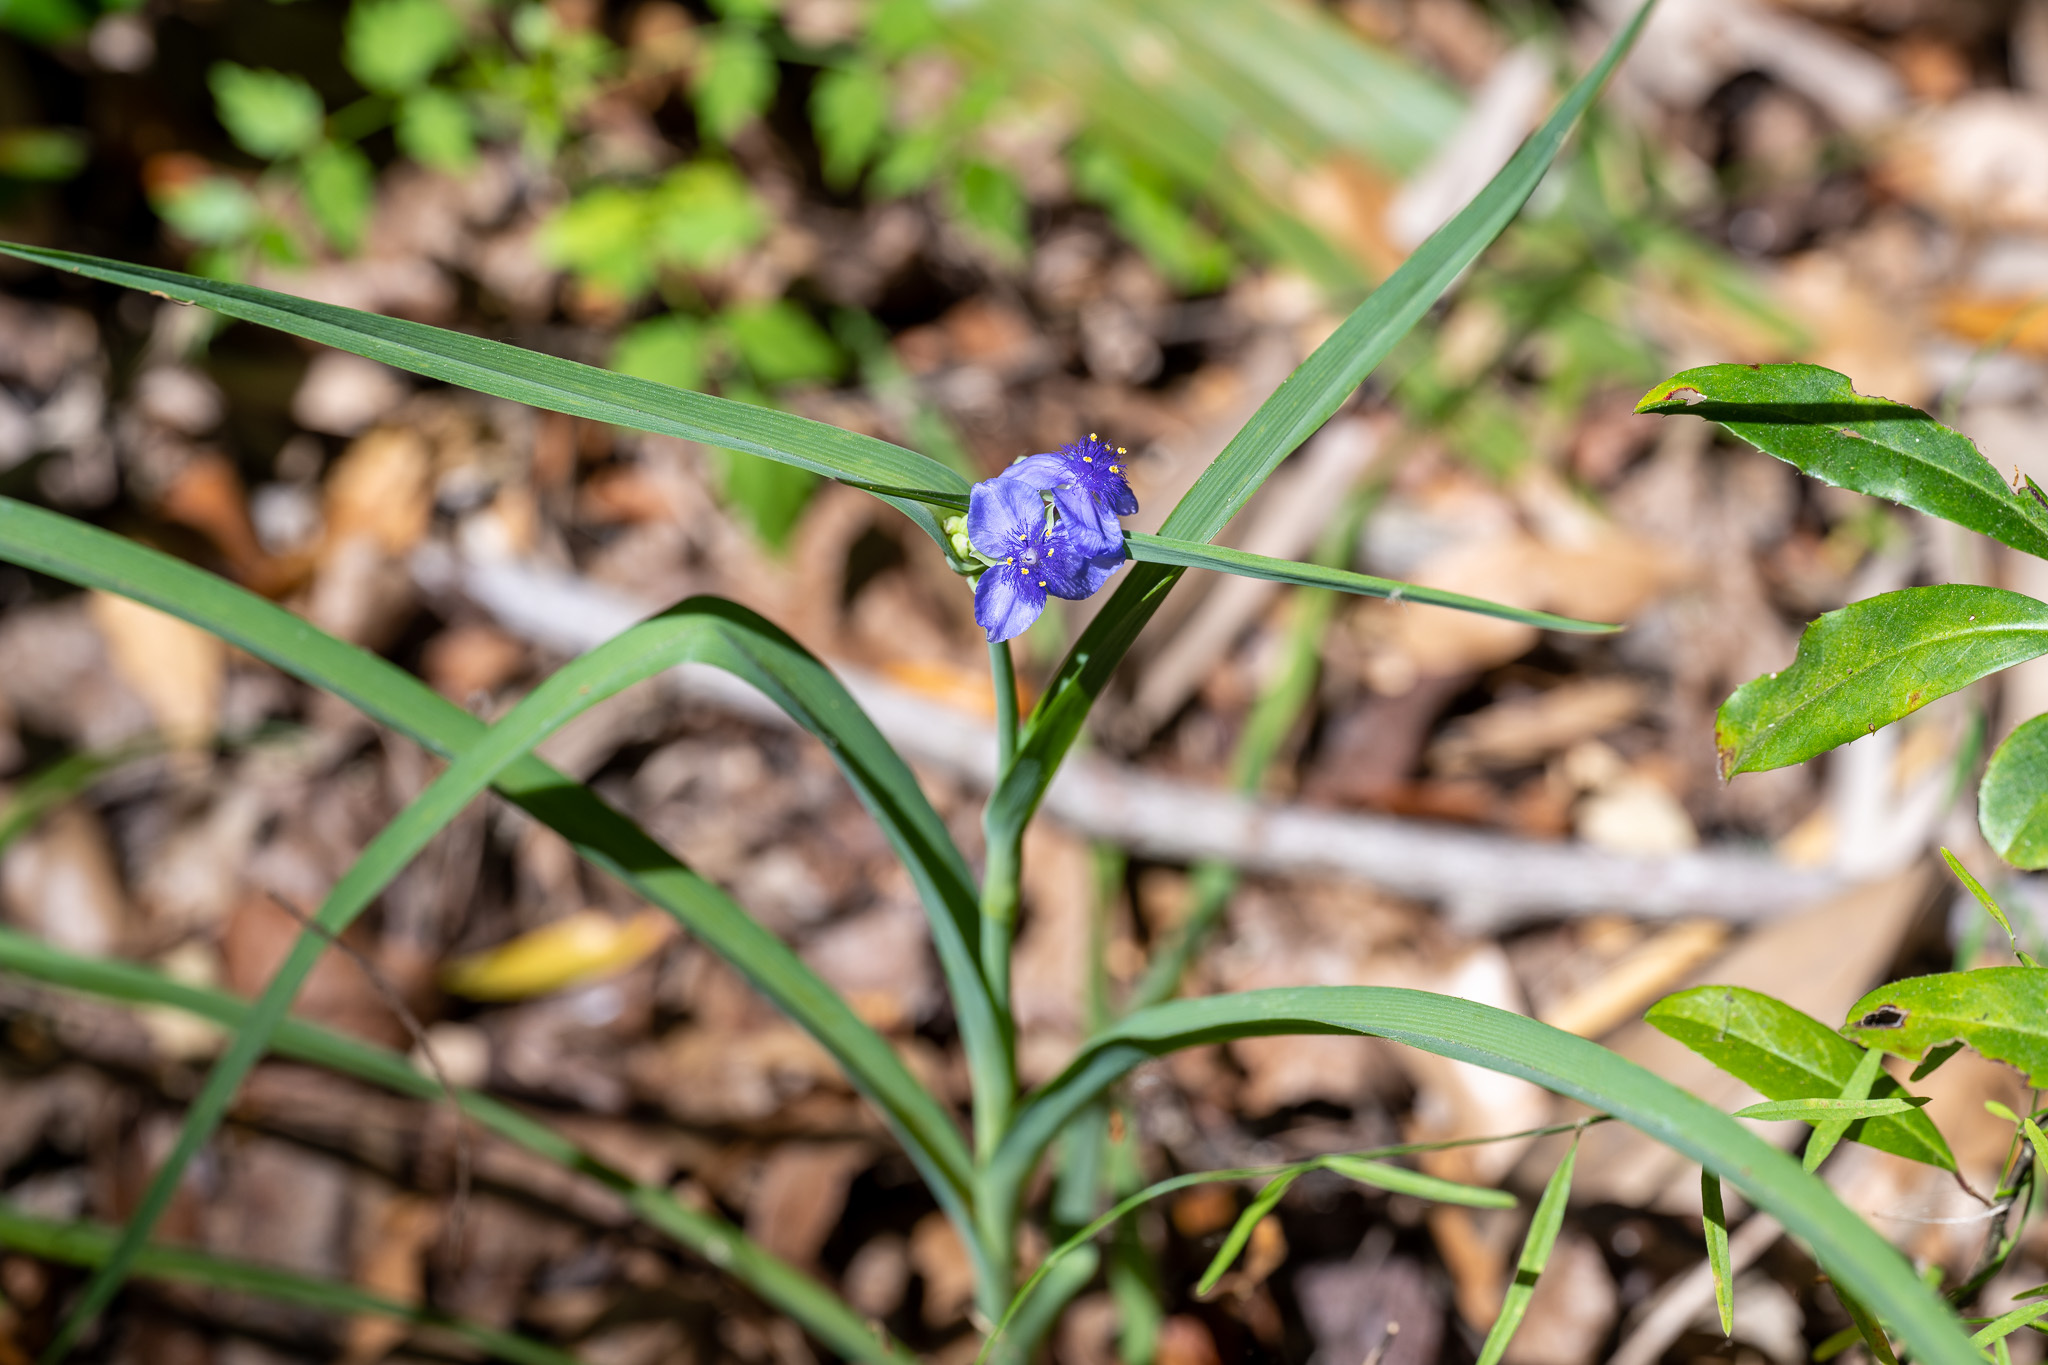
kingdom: Plantae
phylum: Tracheophyta
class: Liliopsida
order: Commelinales
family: Commelinaceae
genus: Tradescantia
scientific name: Tradescantia ohiensis
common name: Ohio spiderwort
